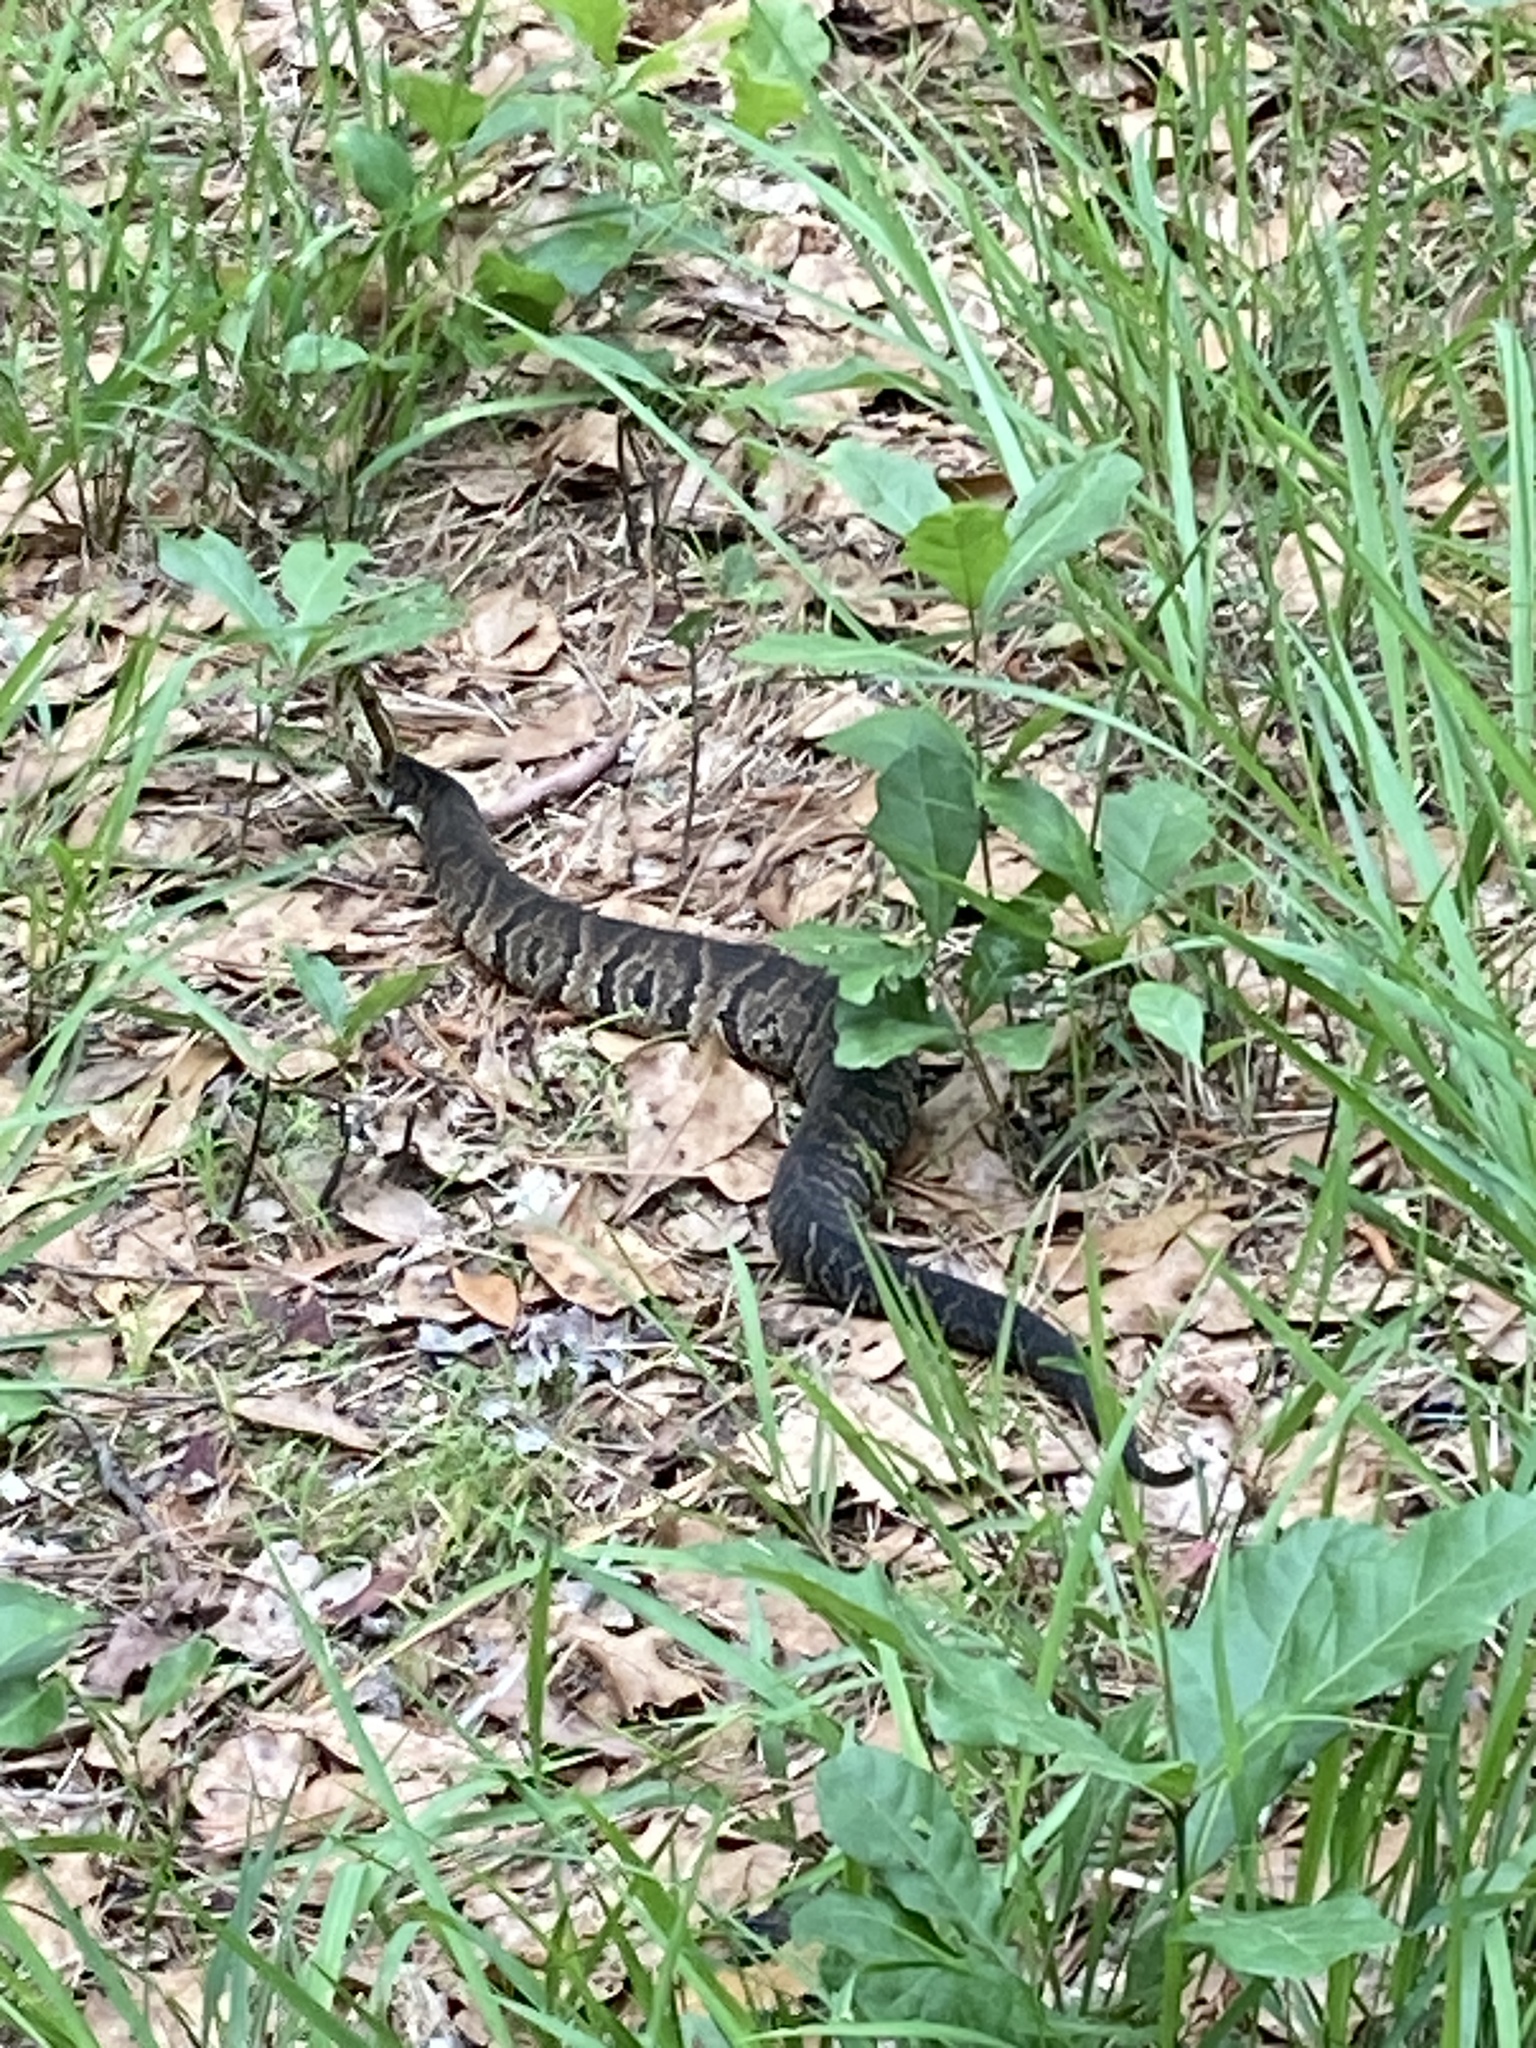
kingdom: Animalia
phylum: Chordata
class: Squamata
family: Viperidae
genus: Agkistrodon
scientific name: Agkistrodon conanti
